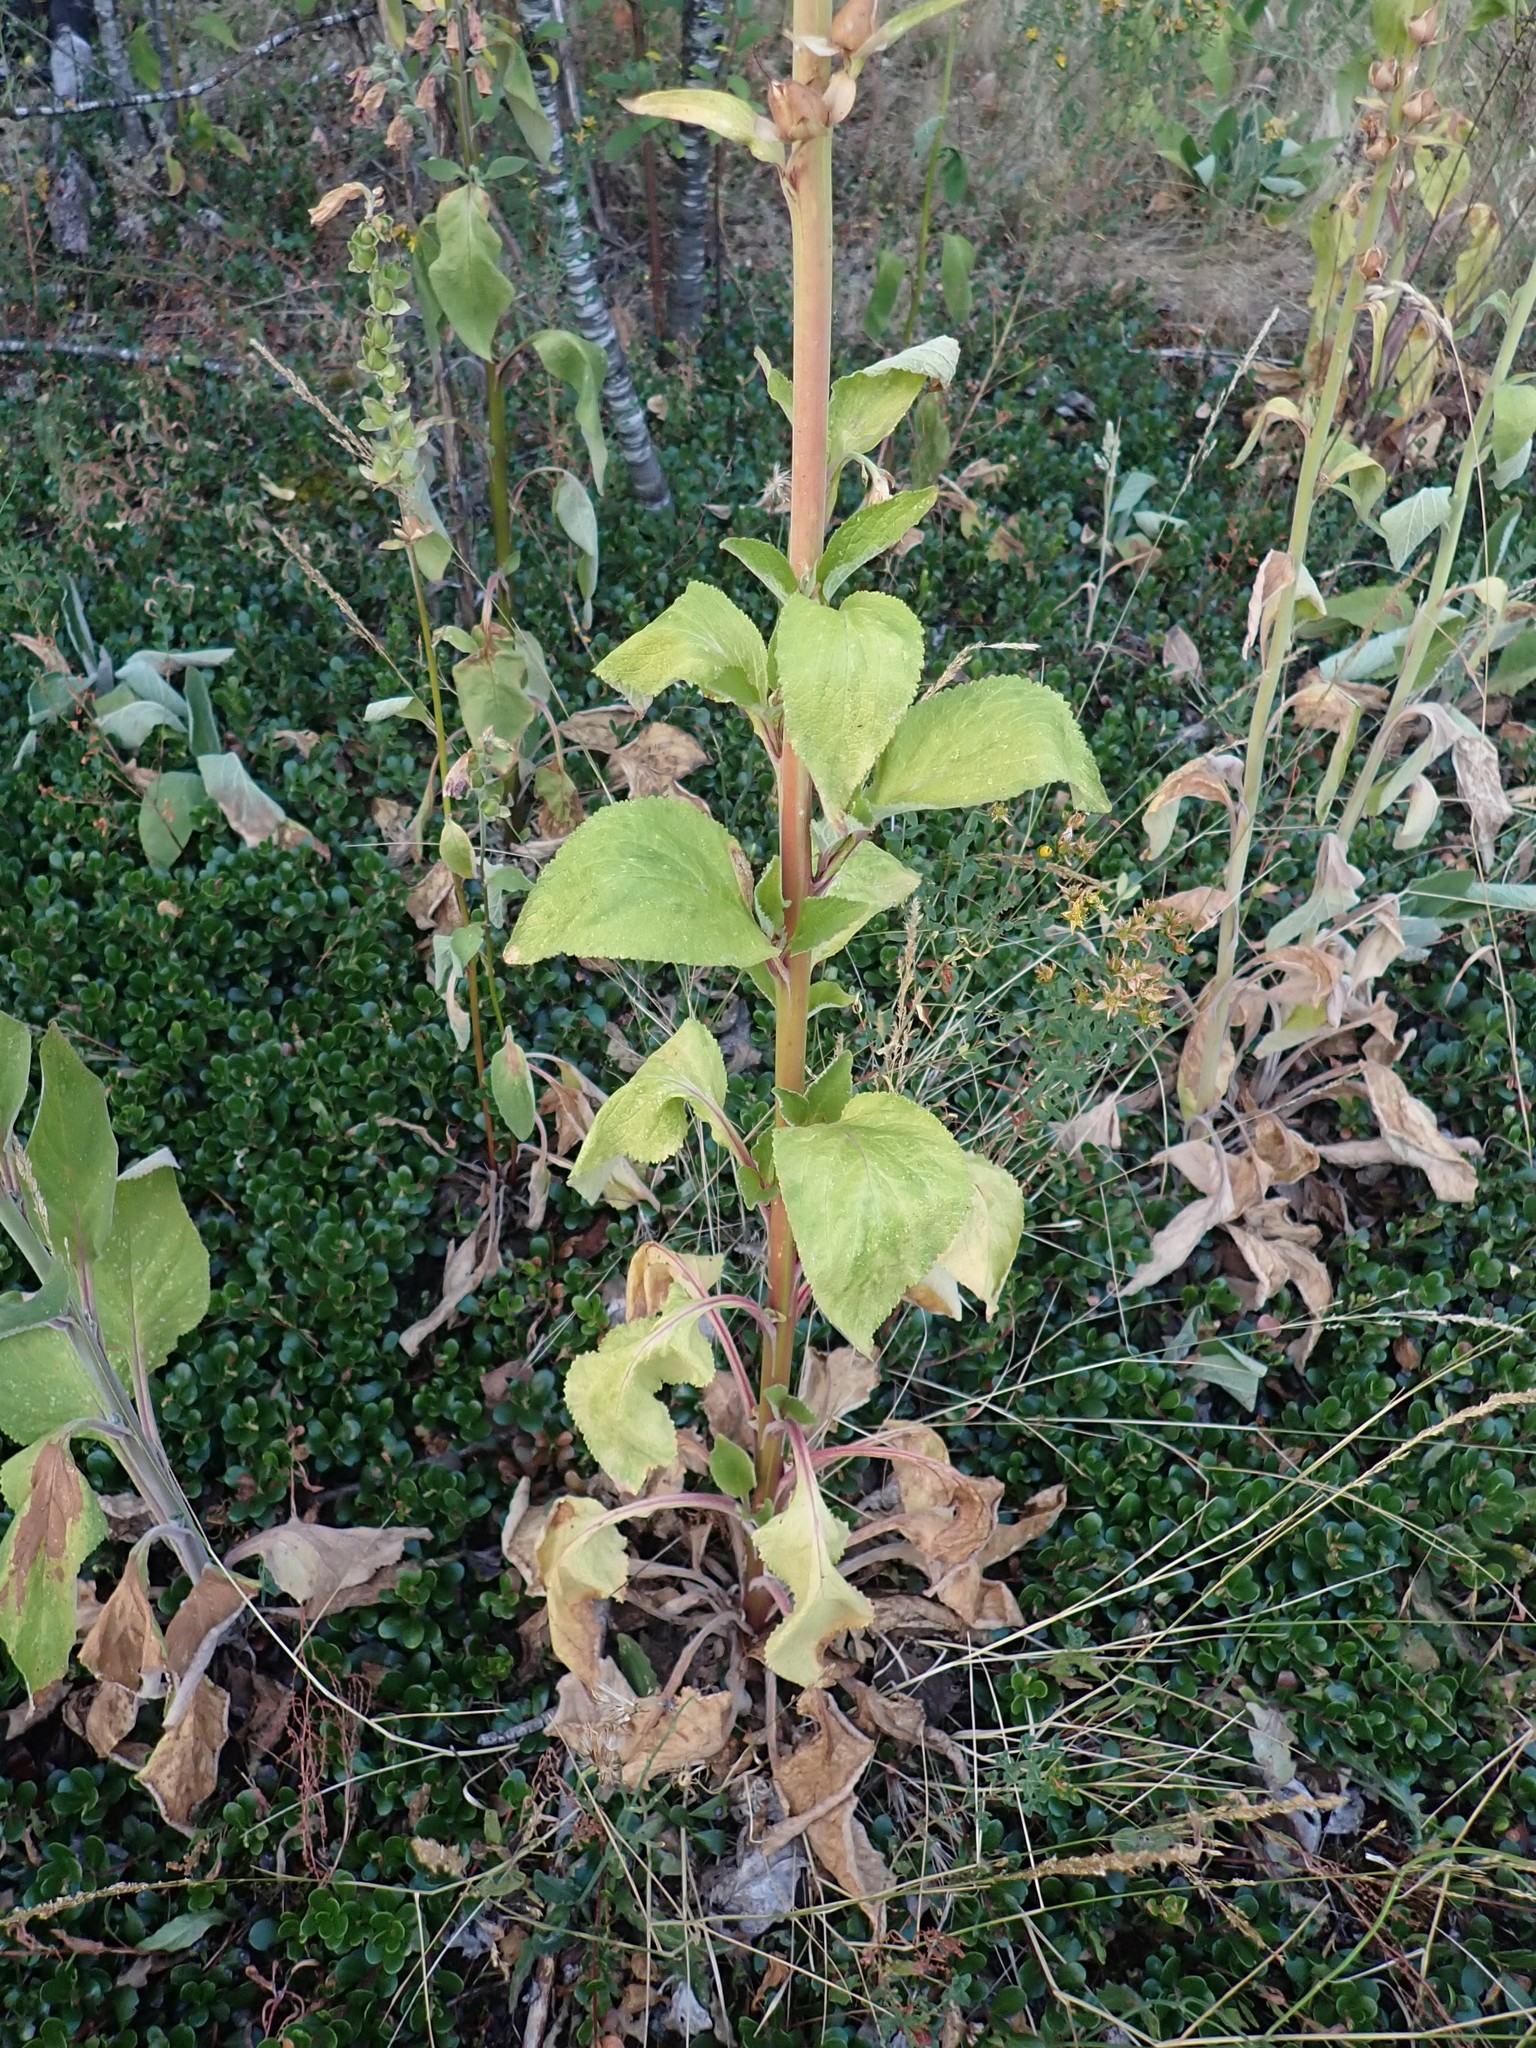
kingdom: Plantae
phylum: Tracheophyta
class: Magnoliopsida
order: Lamiales
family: Plantaginaceae
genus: Digitalis
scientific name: Digitalis purpurea
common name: Foxglove
